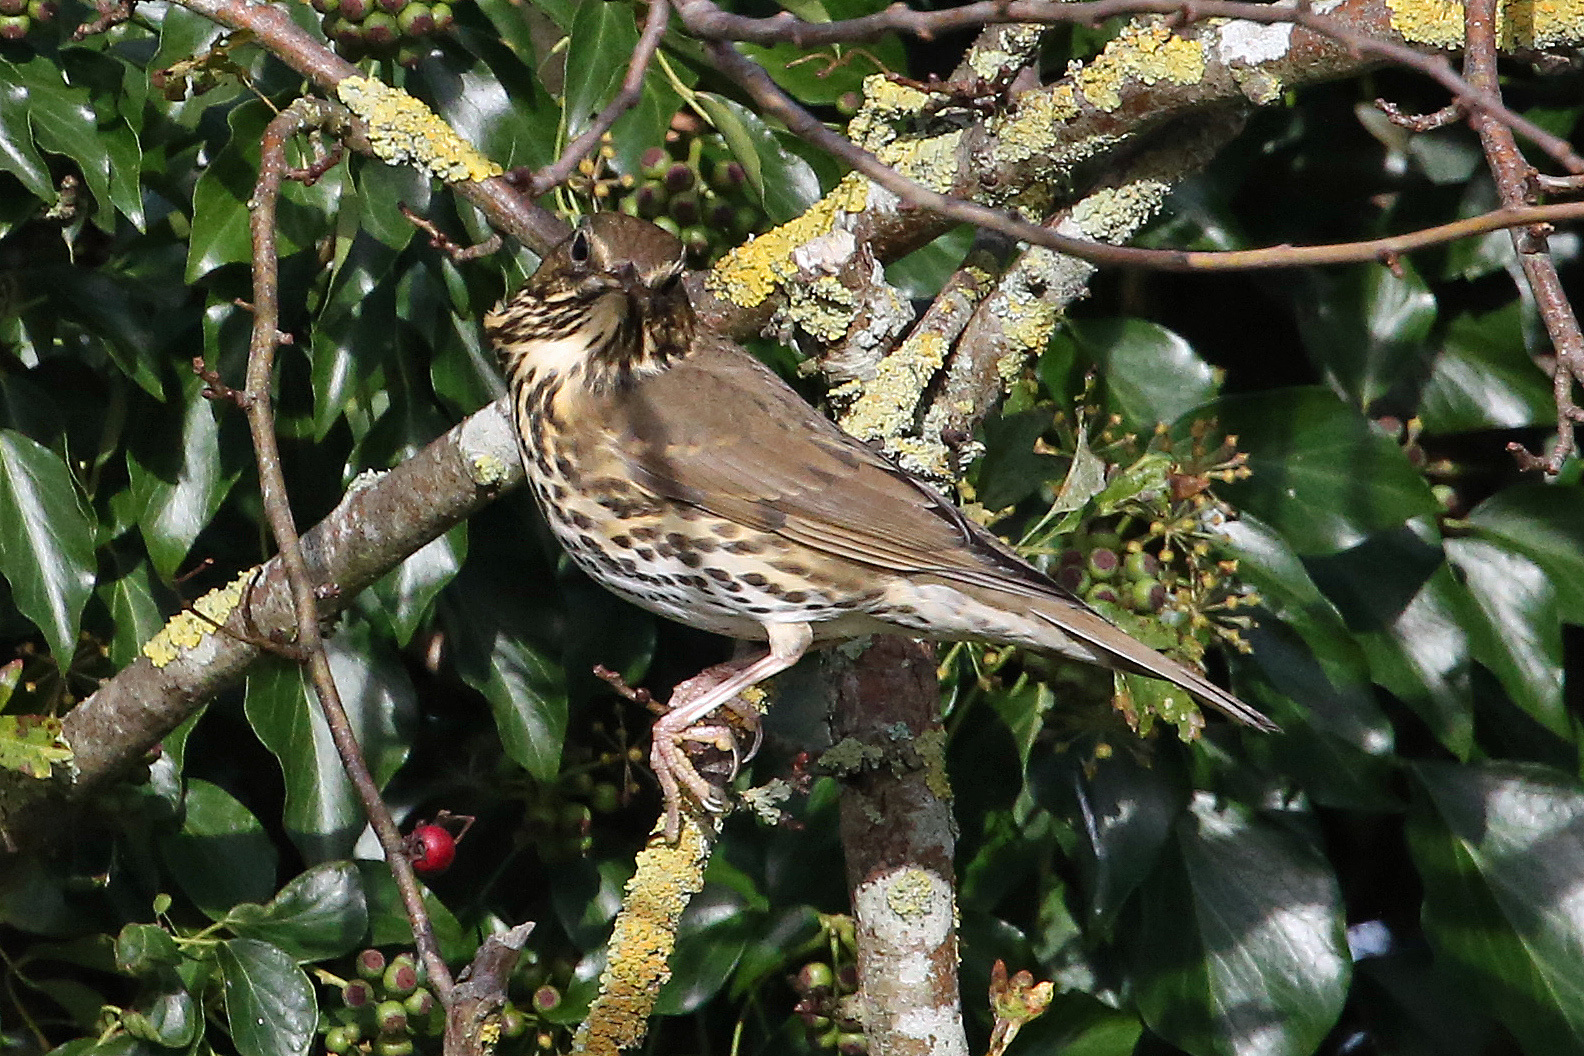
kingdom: Animalia
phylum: Chordata
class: Aves
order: Passeriformes
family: Turdidae
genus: Turdus
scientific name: Turdus philomelos
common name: Song thrush
